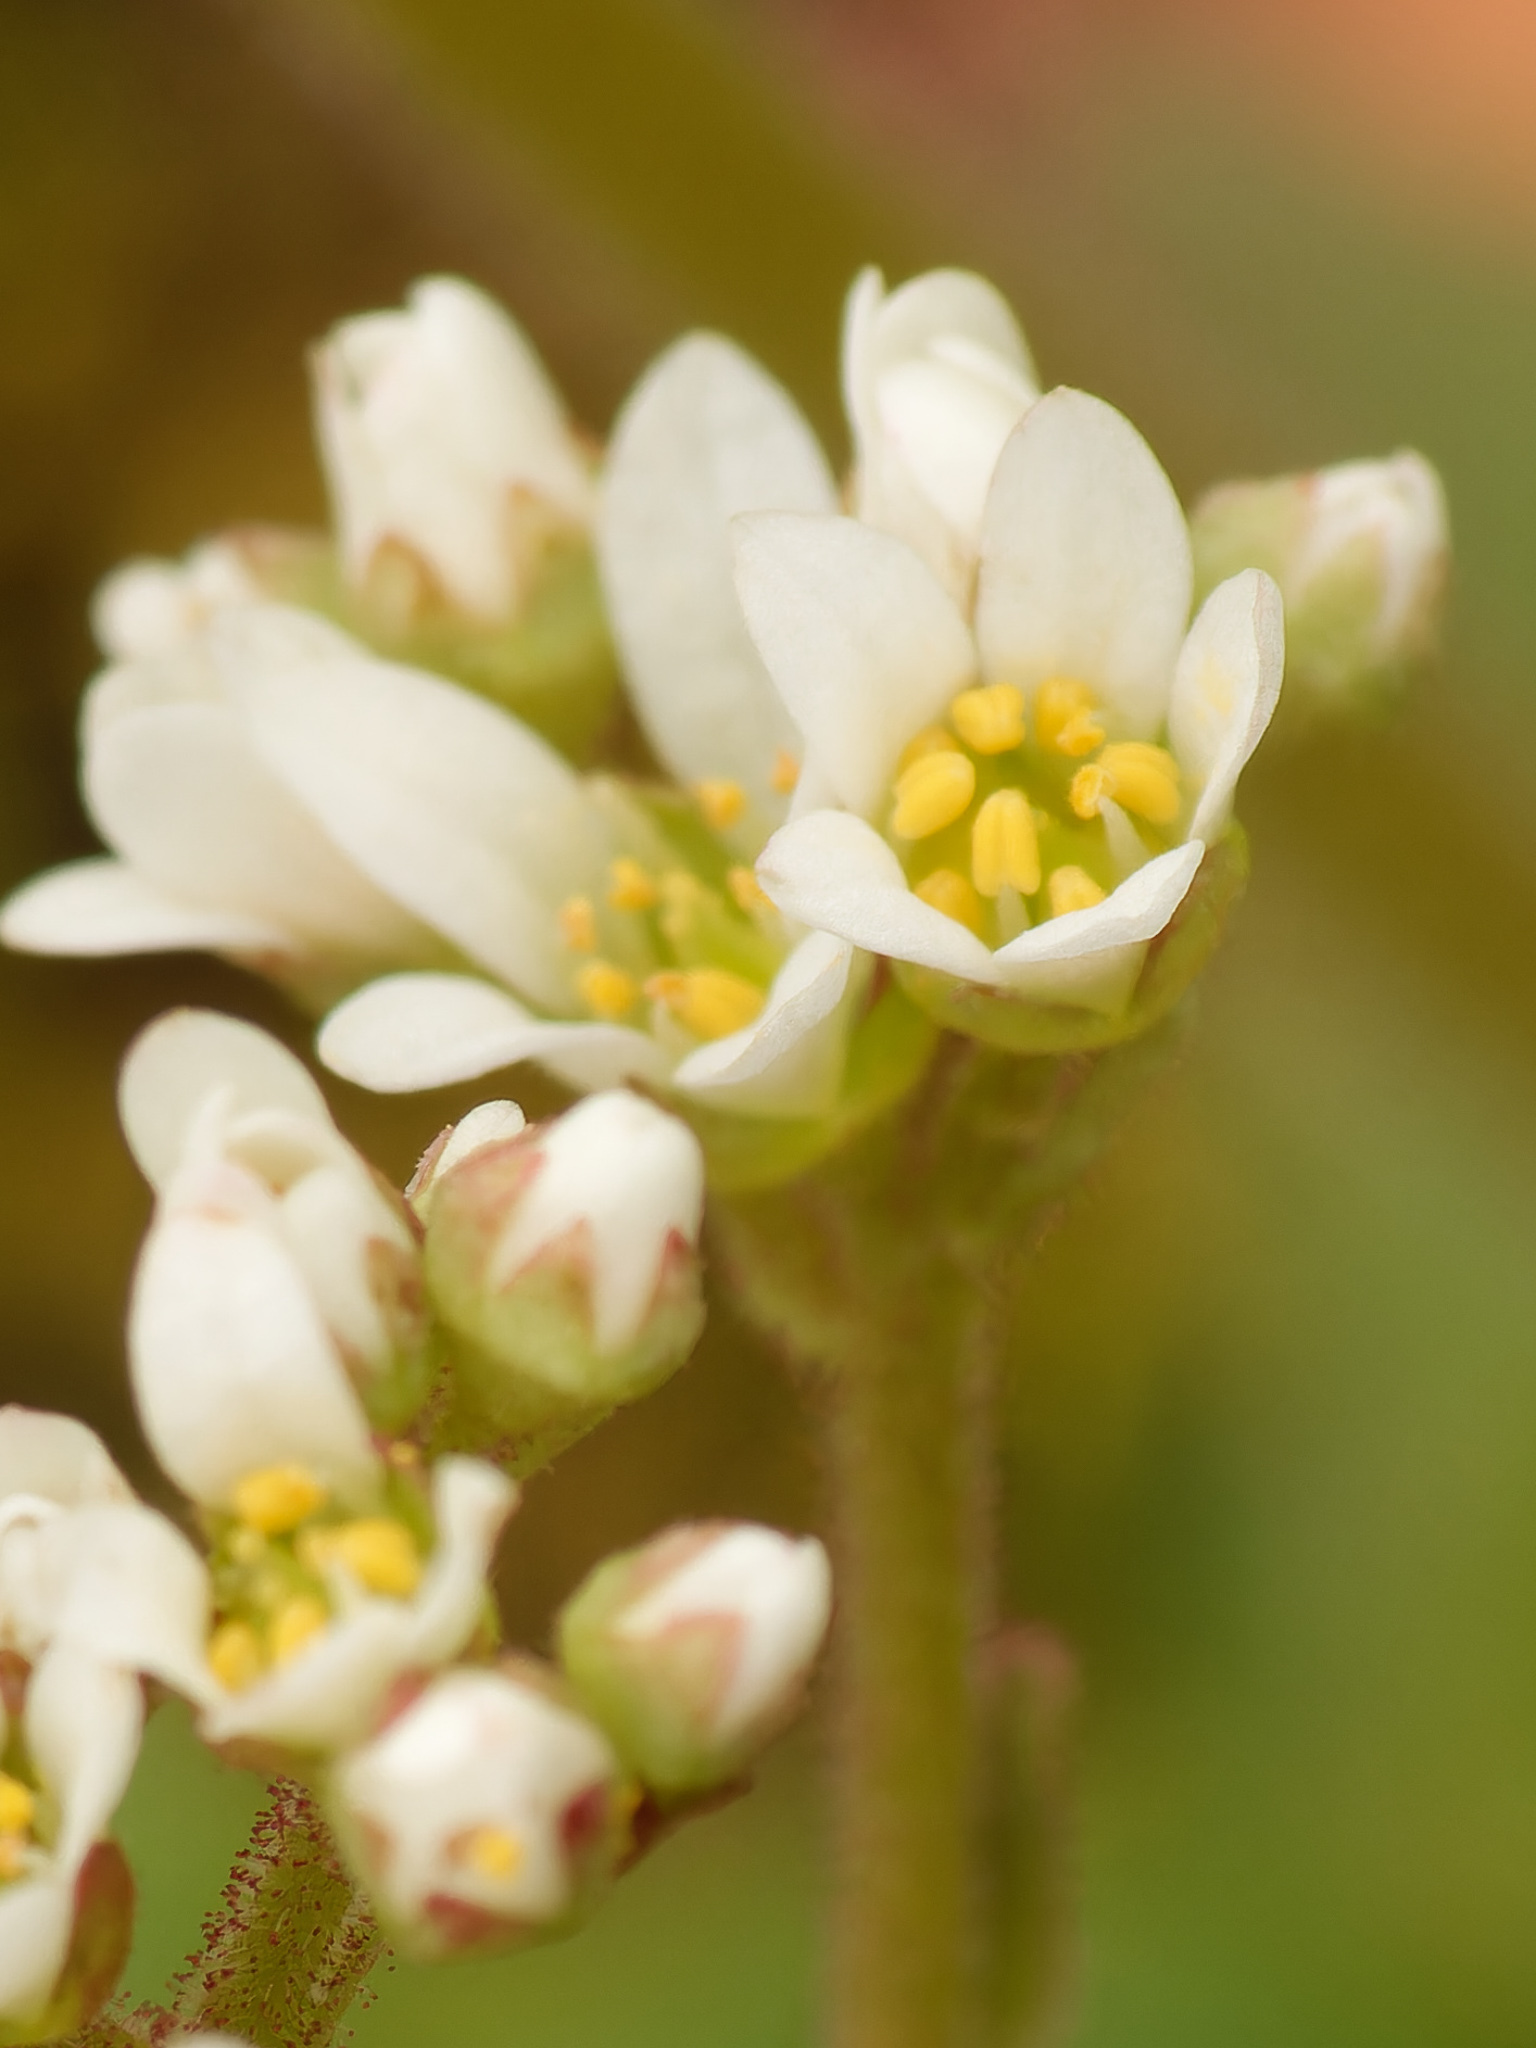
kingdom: Plantae
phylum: Tracheophyta
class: Magnoliopsida
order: Saxifragales
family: Saxifragaceae
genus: Micranthes
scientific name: Micranthes virginiensis
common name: Early saxifrage
